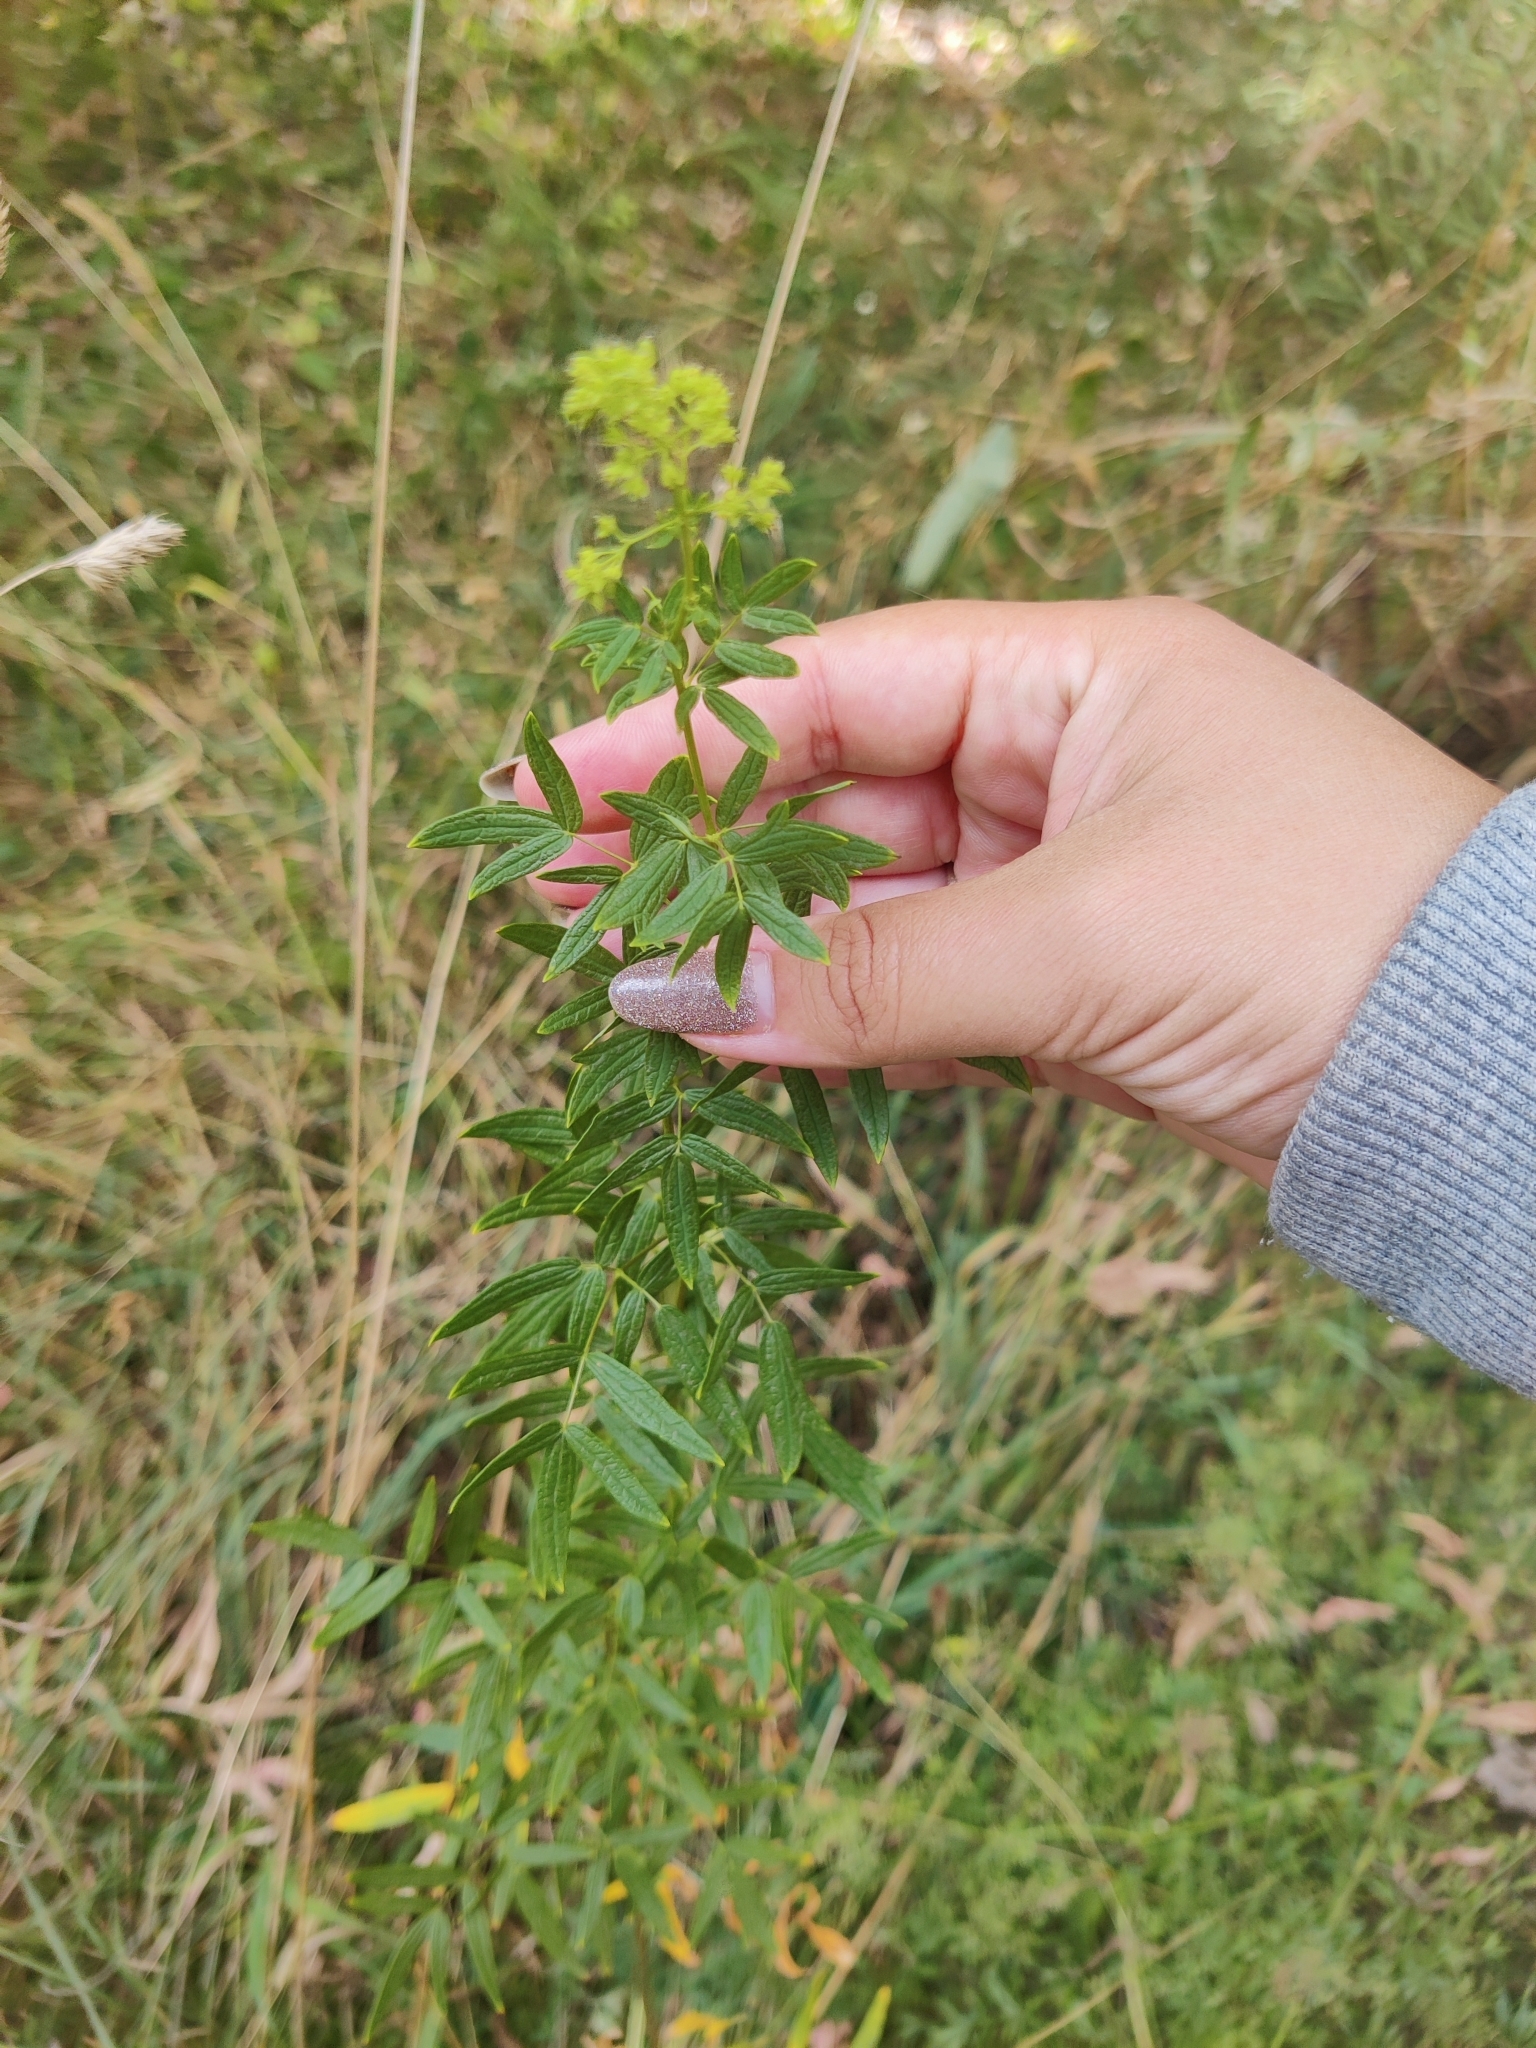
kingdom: Plantae
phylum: Tracheophyta
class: Magnoliopsida
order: Ranunculales
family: Ranunculaceae
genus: Thalictrum
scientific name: Thalictrum lucidum
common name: Shining meadow-rue
